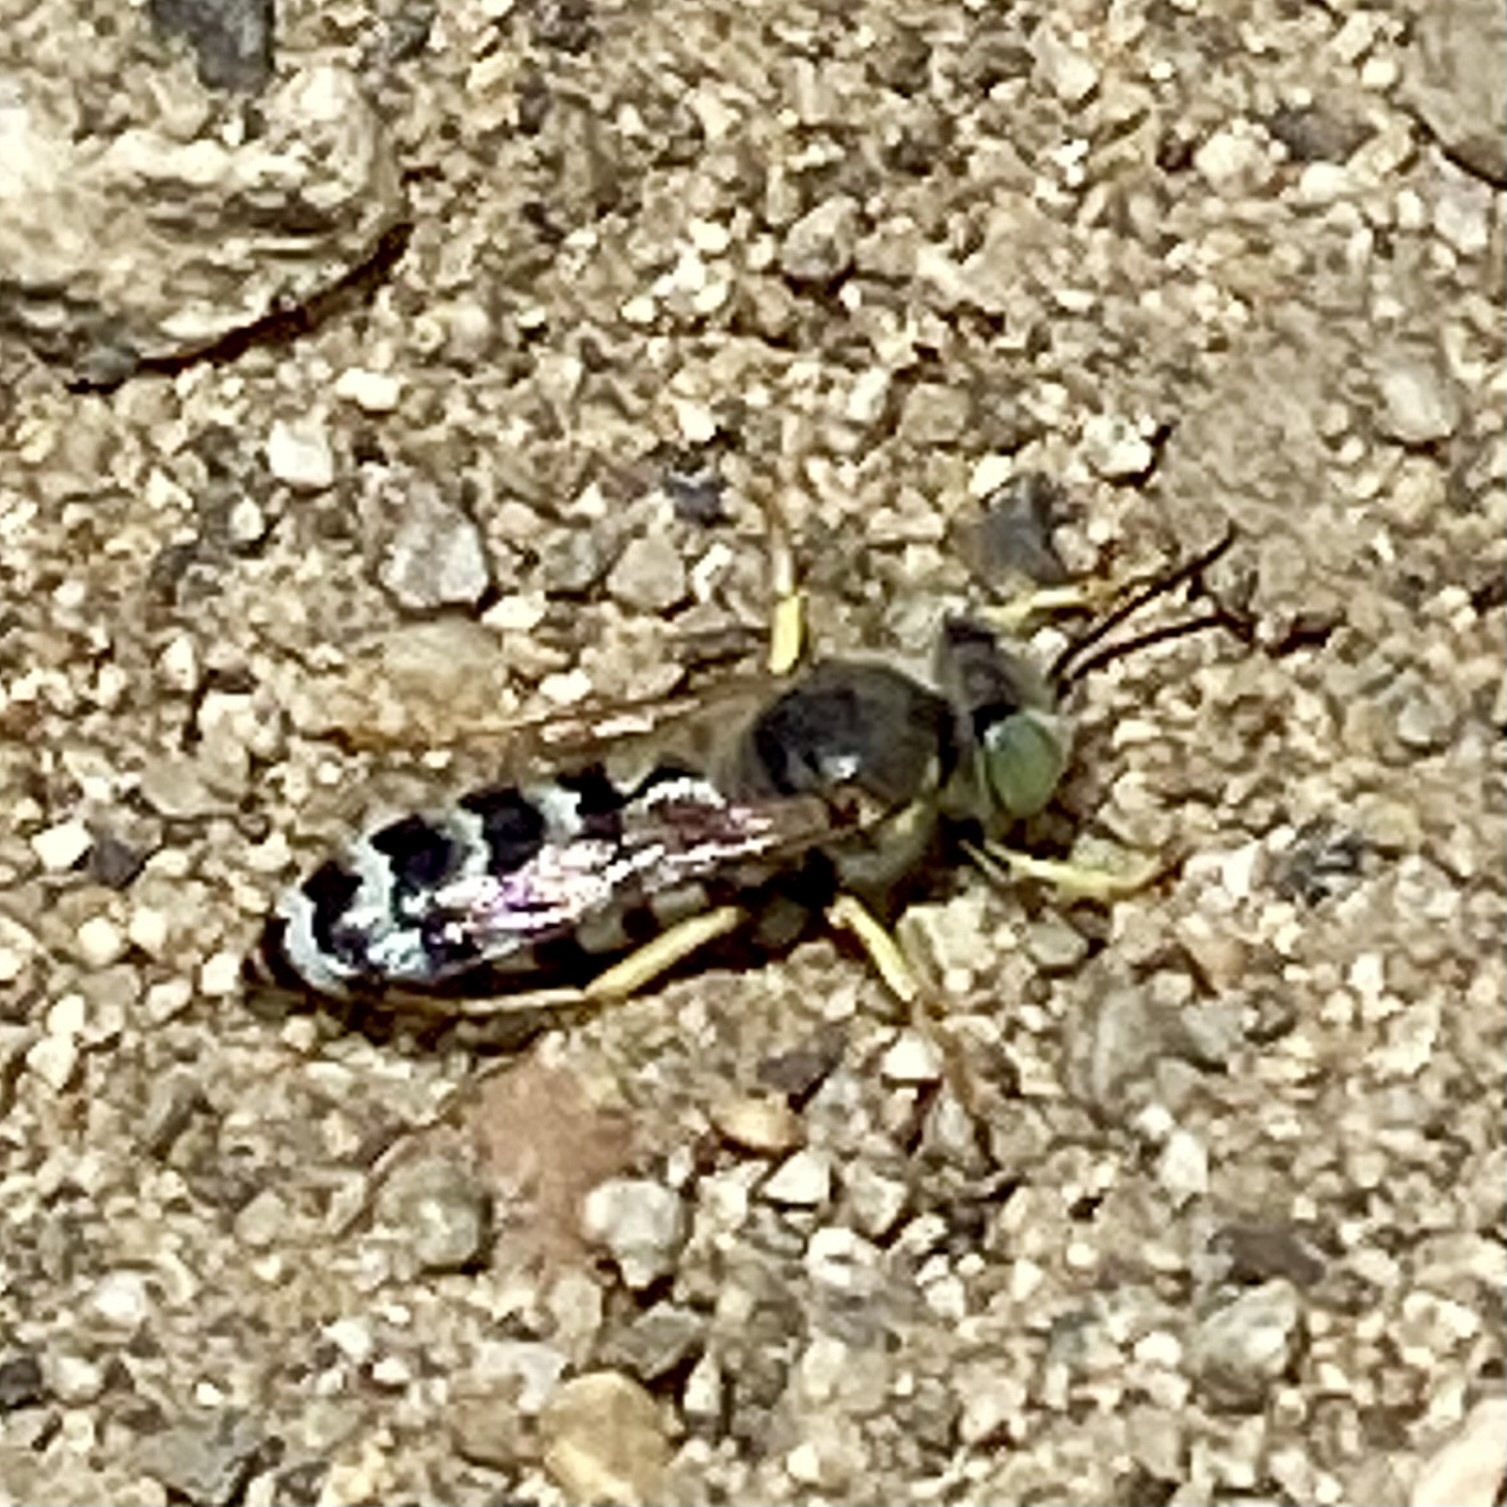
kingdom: Animalia
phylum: Arthropoda
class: Insecta
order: Hymenoptera
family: Crabronidae
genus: Bembix
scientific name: Bembix americana
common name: American sand wasp
